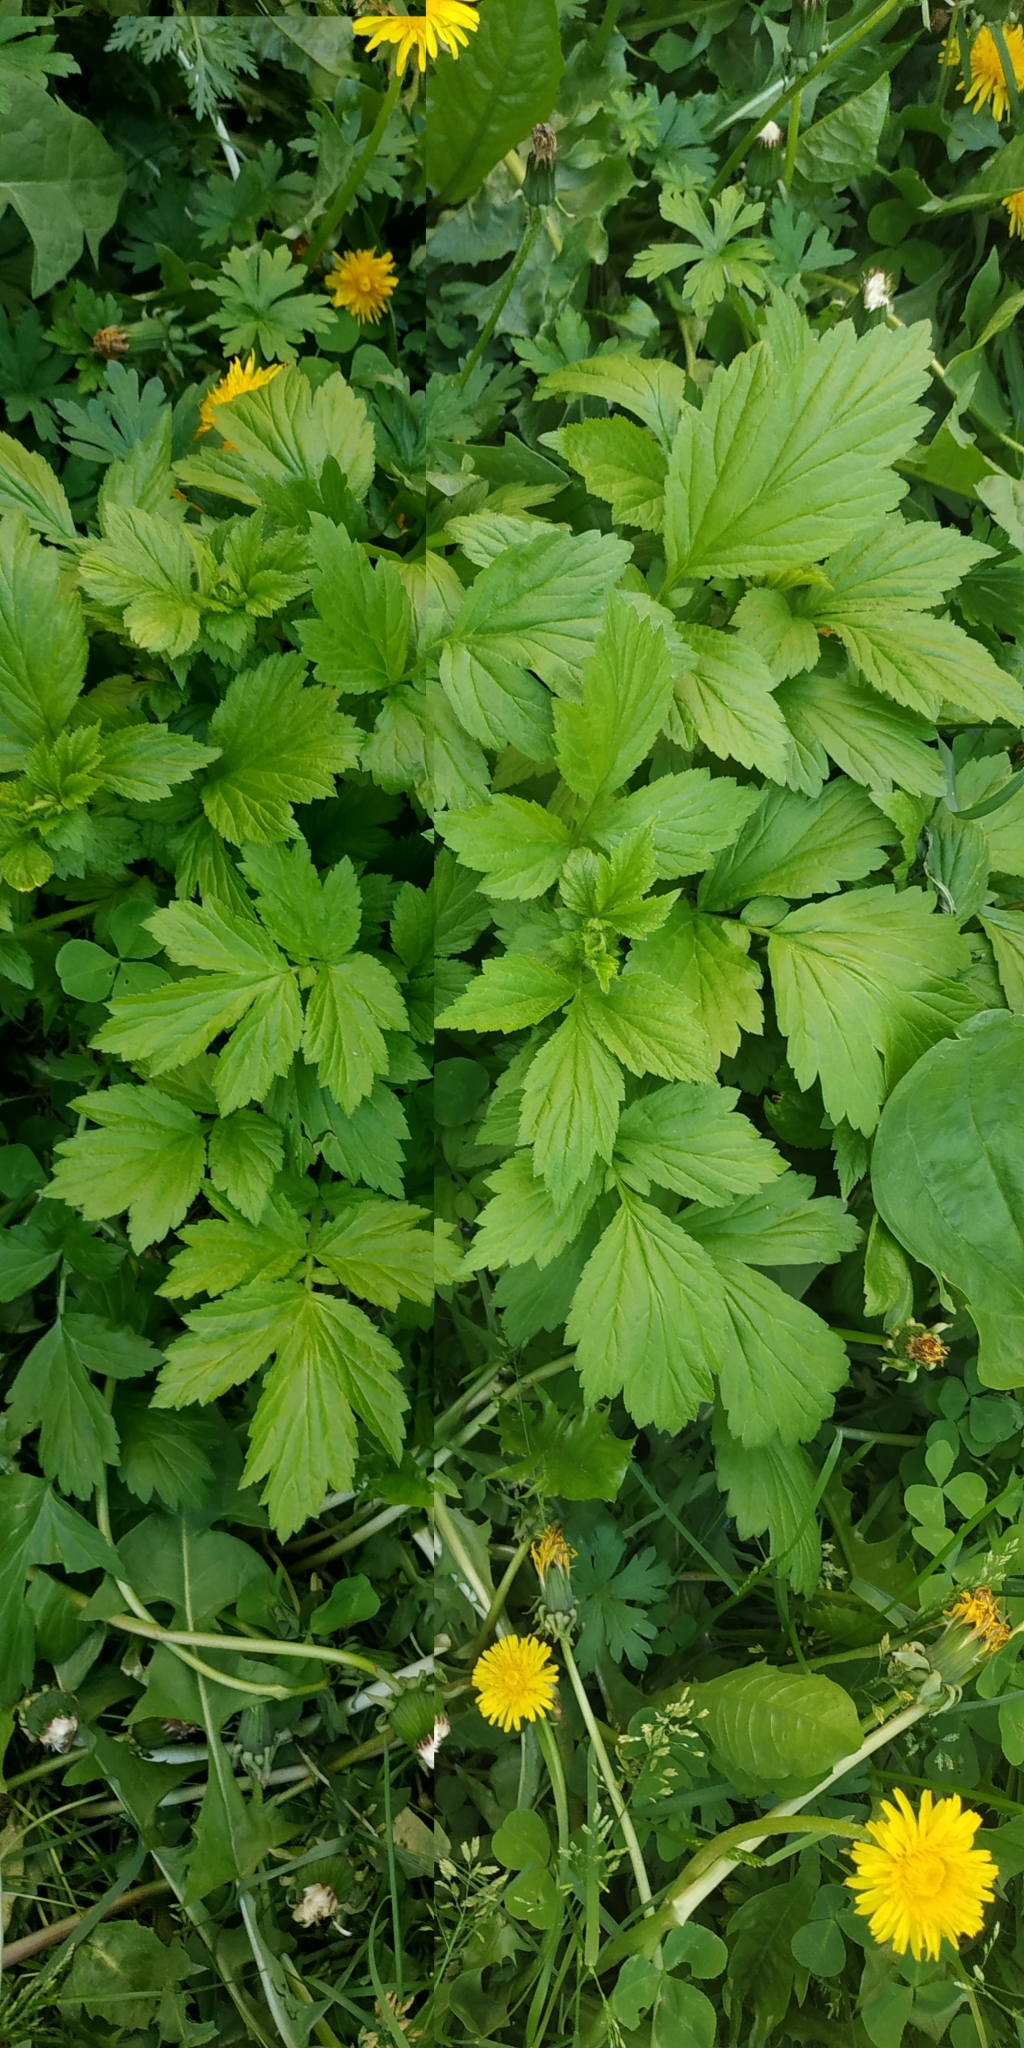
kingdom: Plantae
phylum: Tracheophyta
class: Magnoliopsida
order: Rosales
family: Rosaceae
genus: Geum
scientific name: Geum aleppicum
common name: Yellow avens
